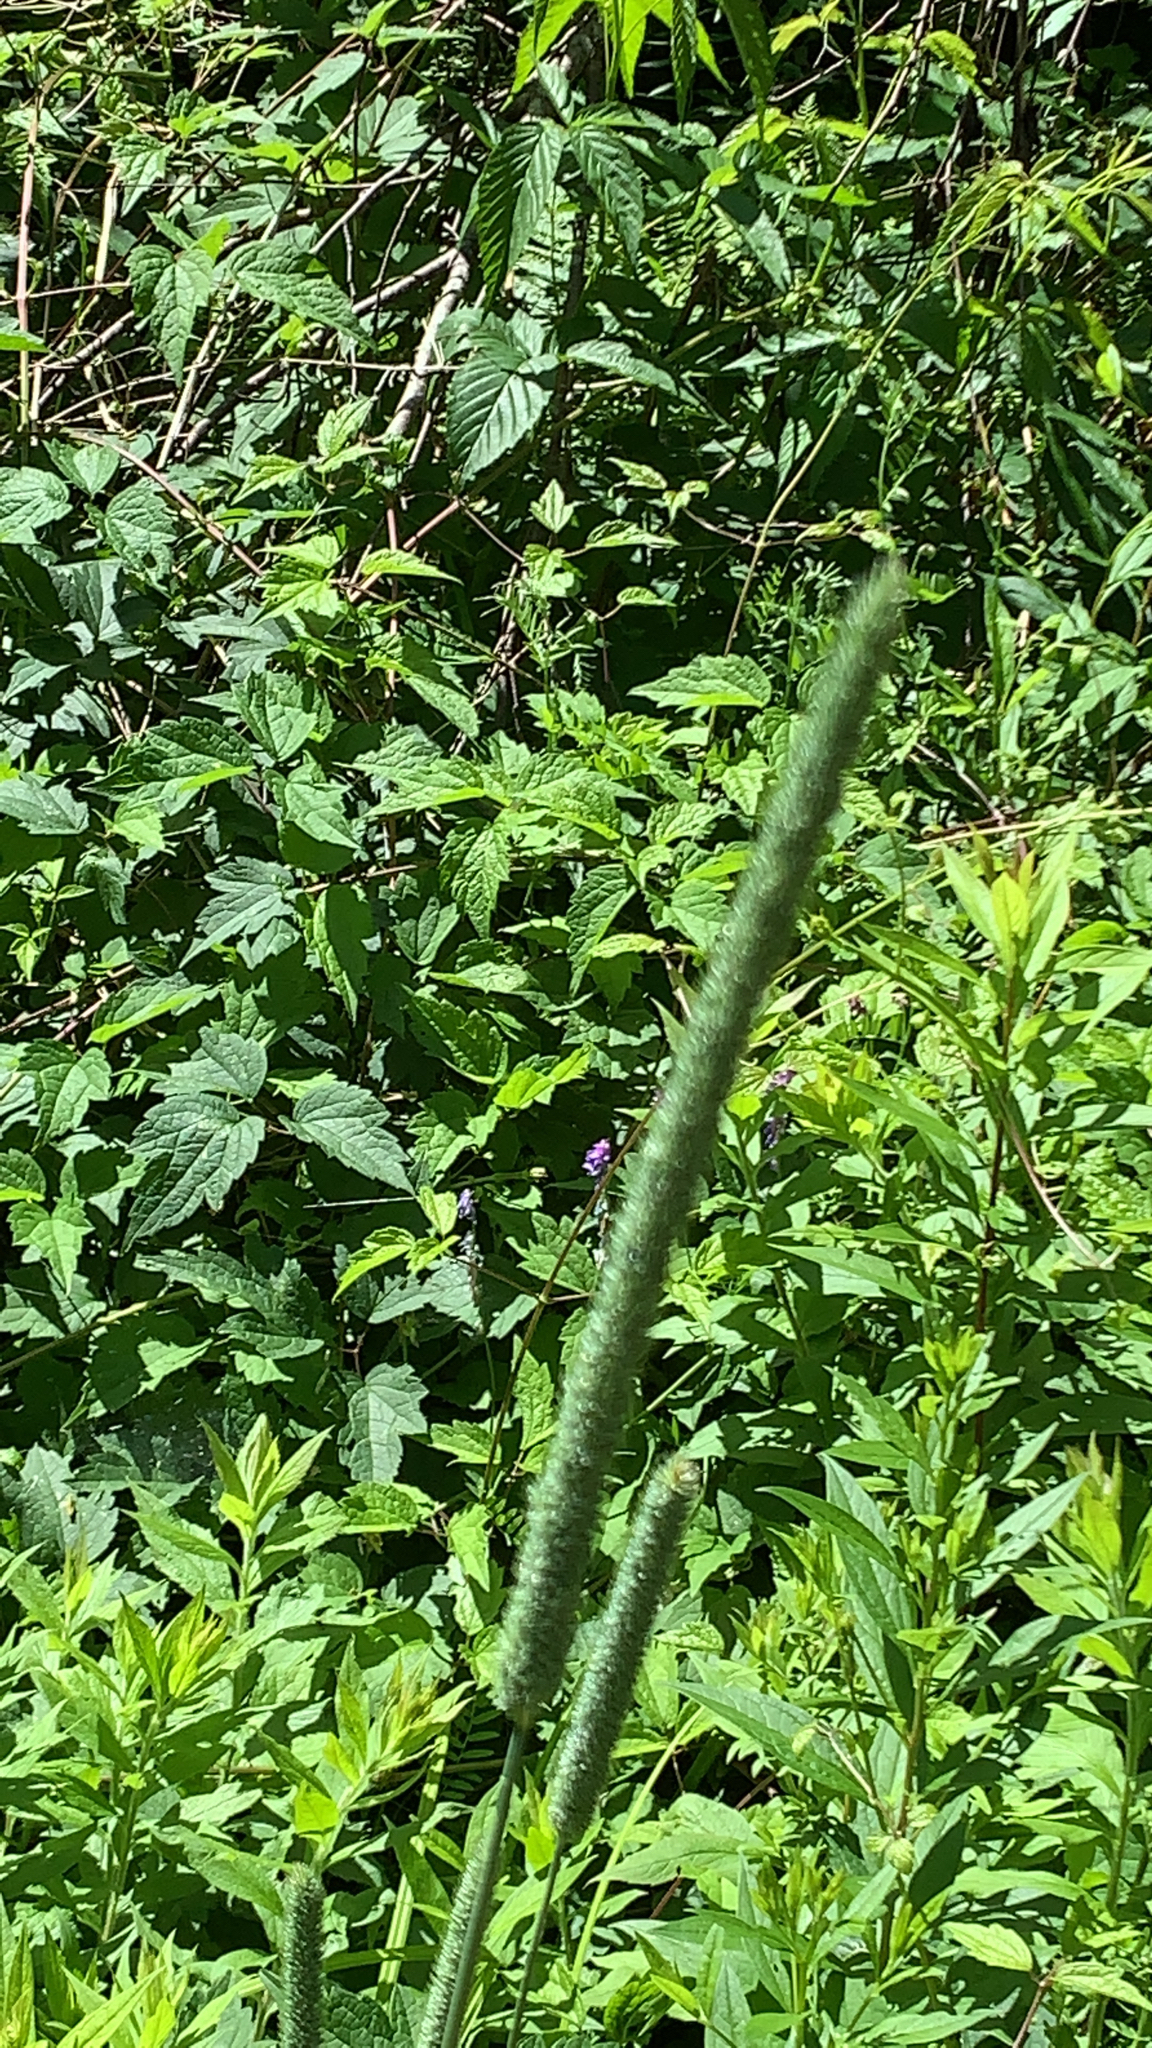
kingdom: Plantae
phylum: Tracheophyta
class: Liliopsida
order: Poales
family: Poaceae
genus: Phleum
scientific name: Phleum pratense
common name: Timothy grass
